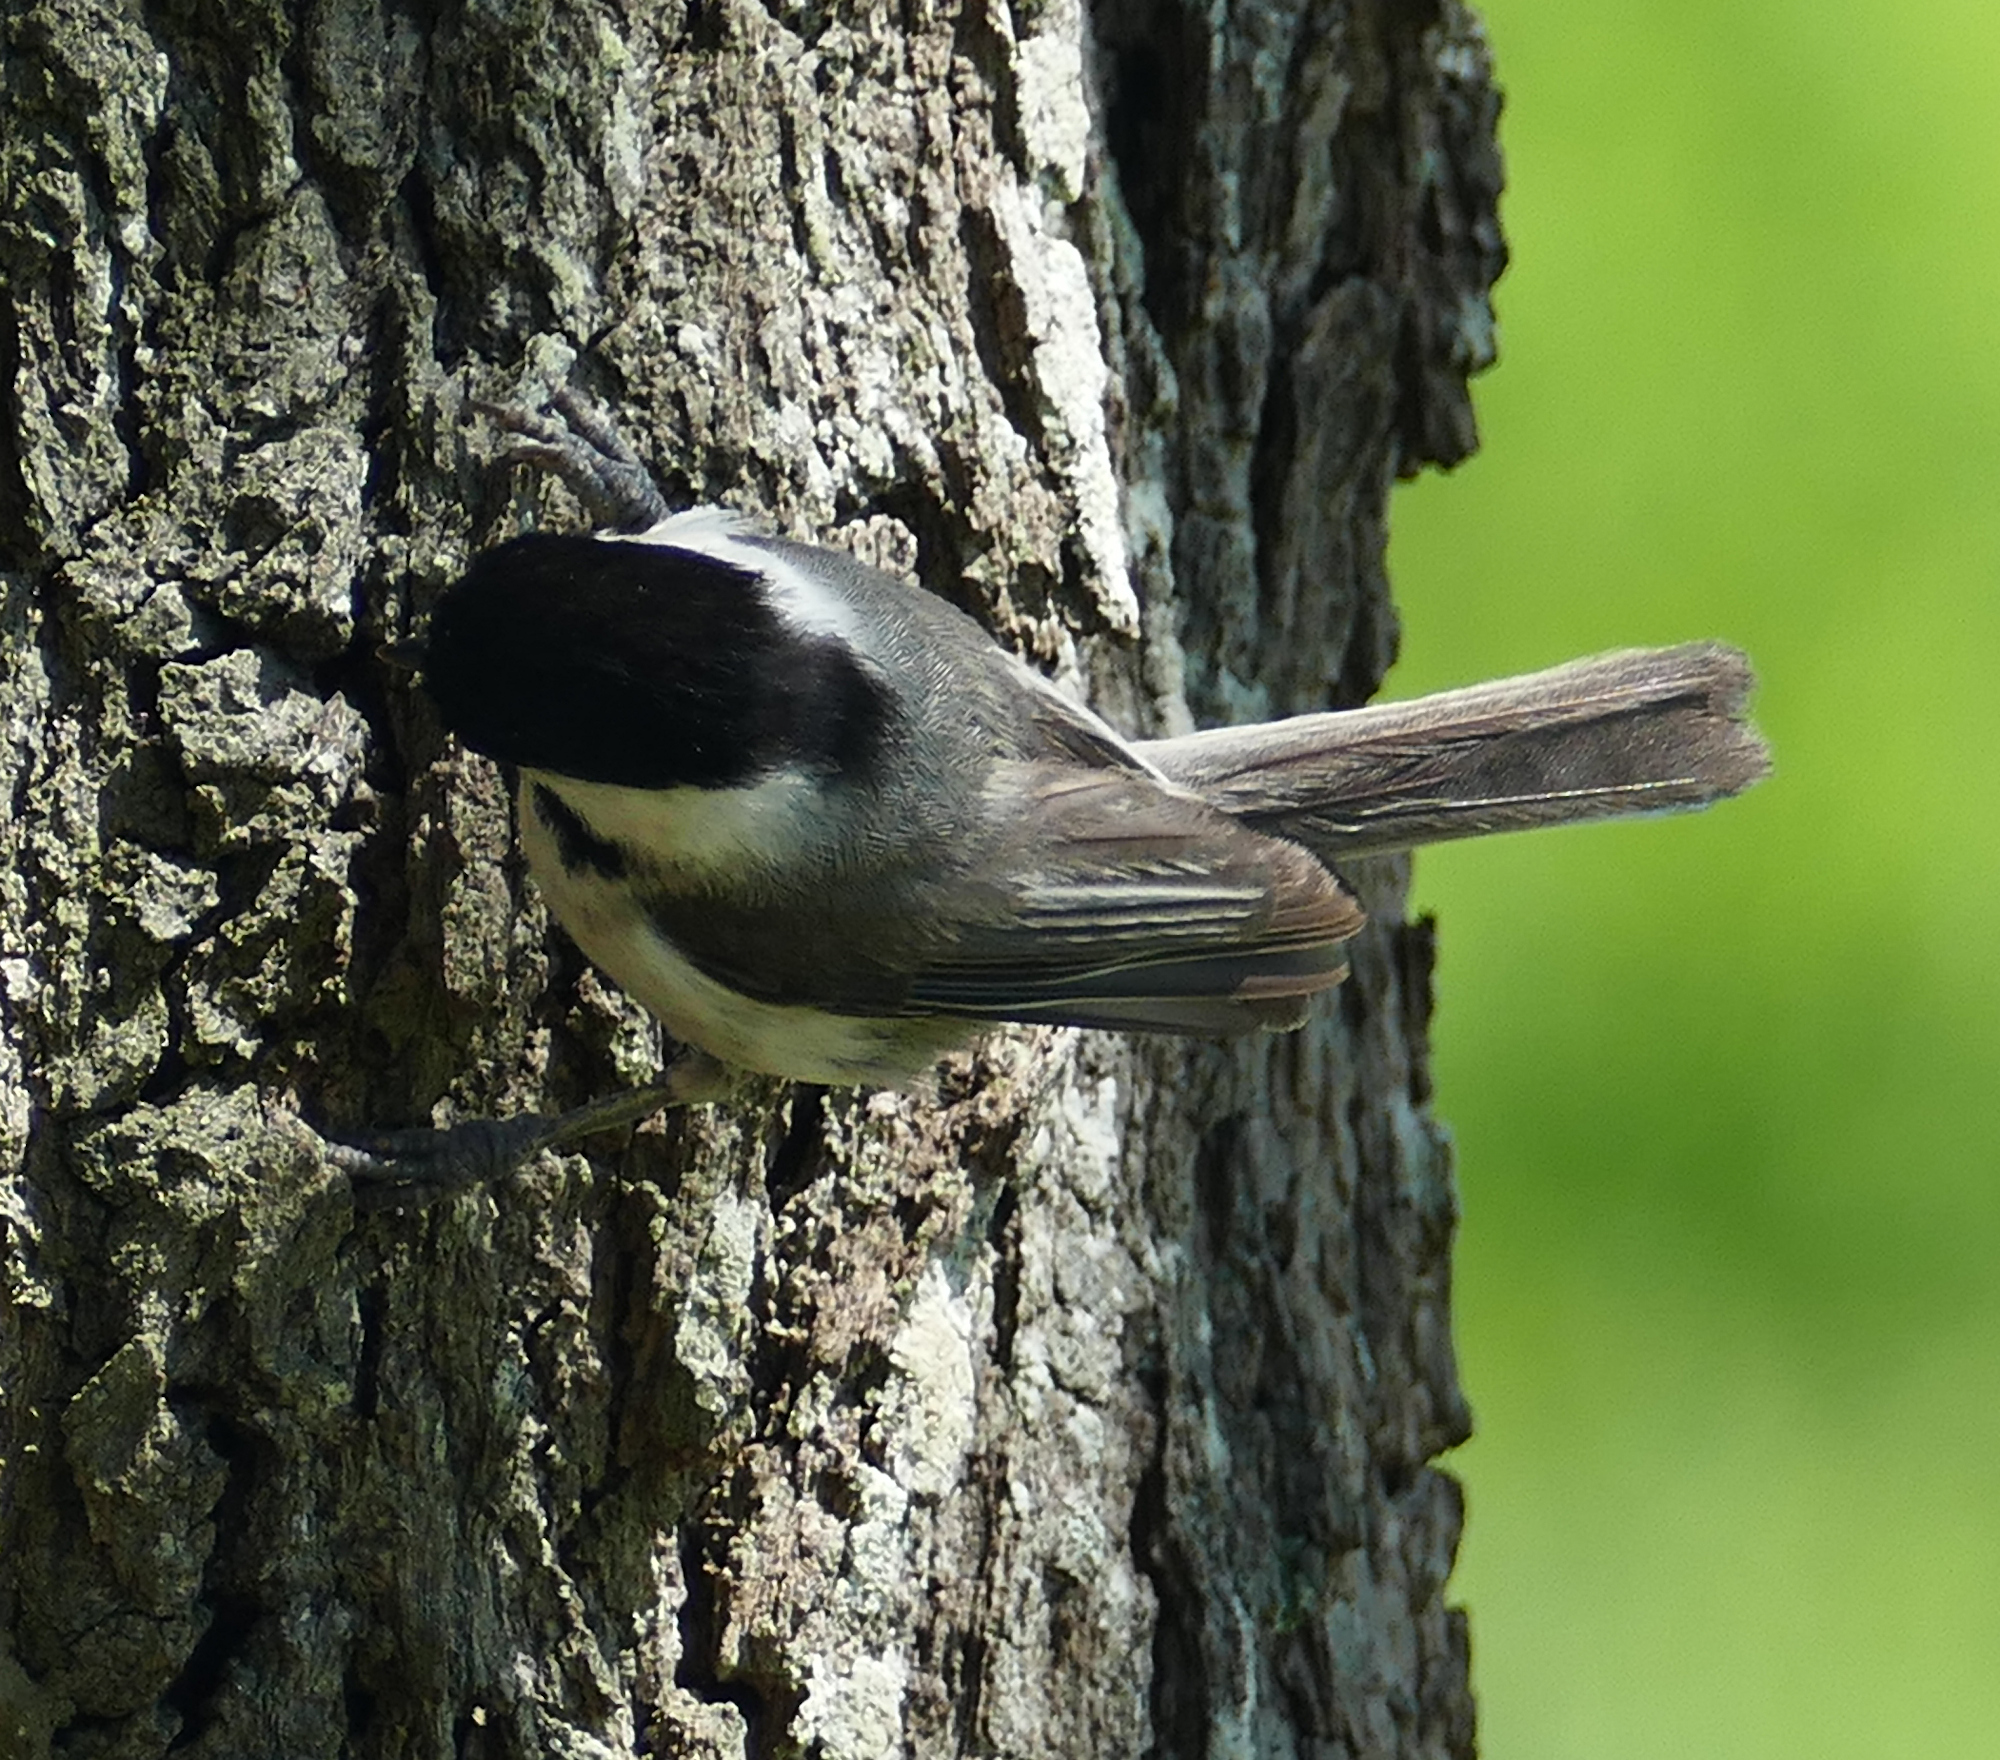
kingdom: Animalia
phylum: Chordata
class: Aves
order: Passeriformes
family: Paridae
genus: Poecile
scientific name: Poecile carolinensis
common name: Carolina chickadee
